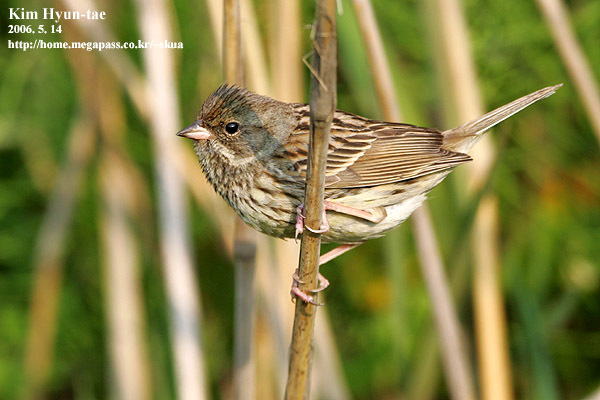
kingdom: Animalia
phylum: Chordata
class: Aves
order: Passeriformes
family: Emberizidae
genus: Emberiza
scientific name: Emberiza spodocephala
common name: Black-faced bunting
